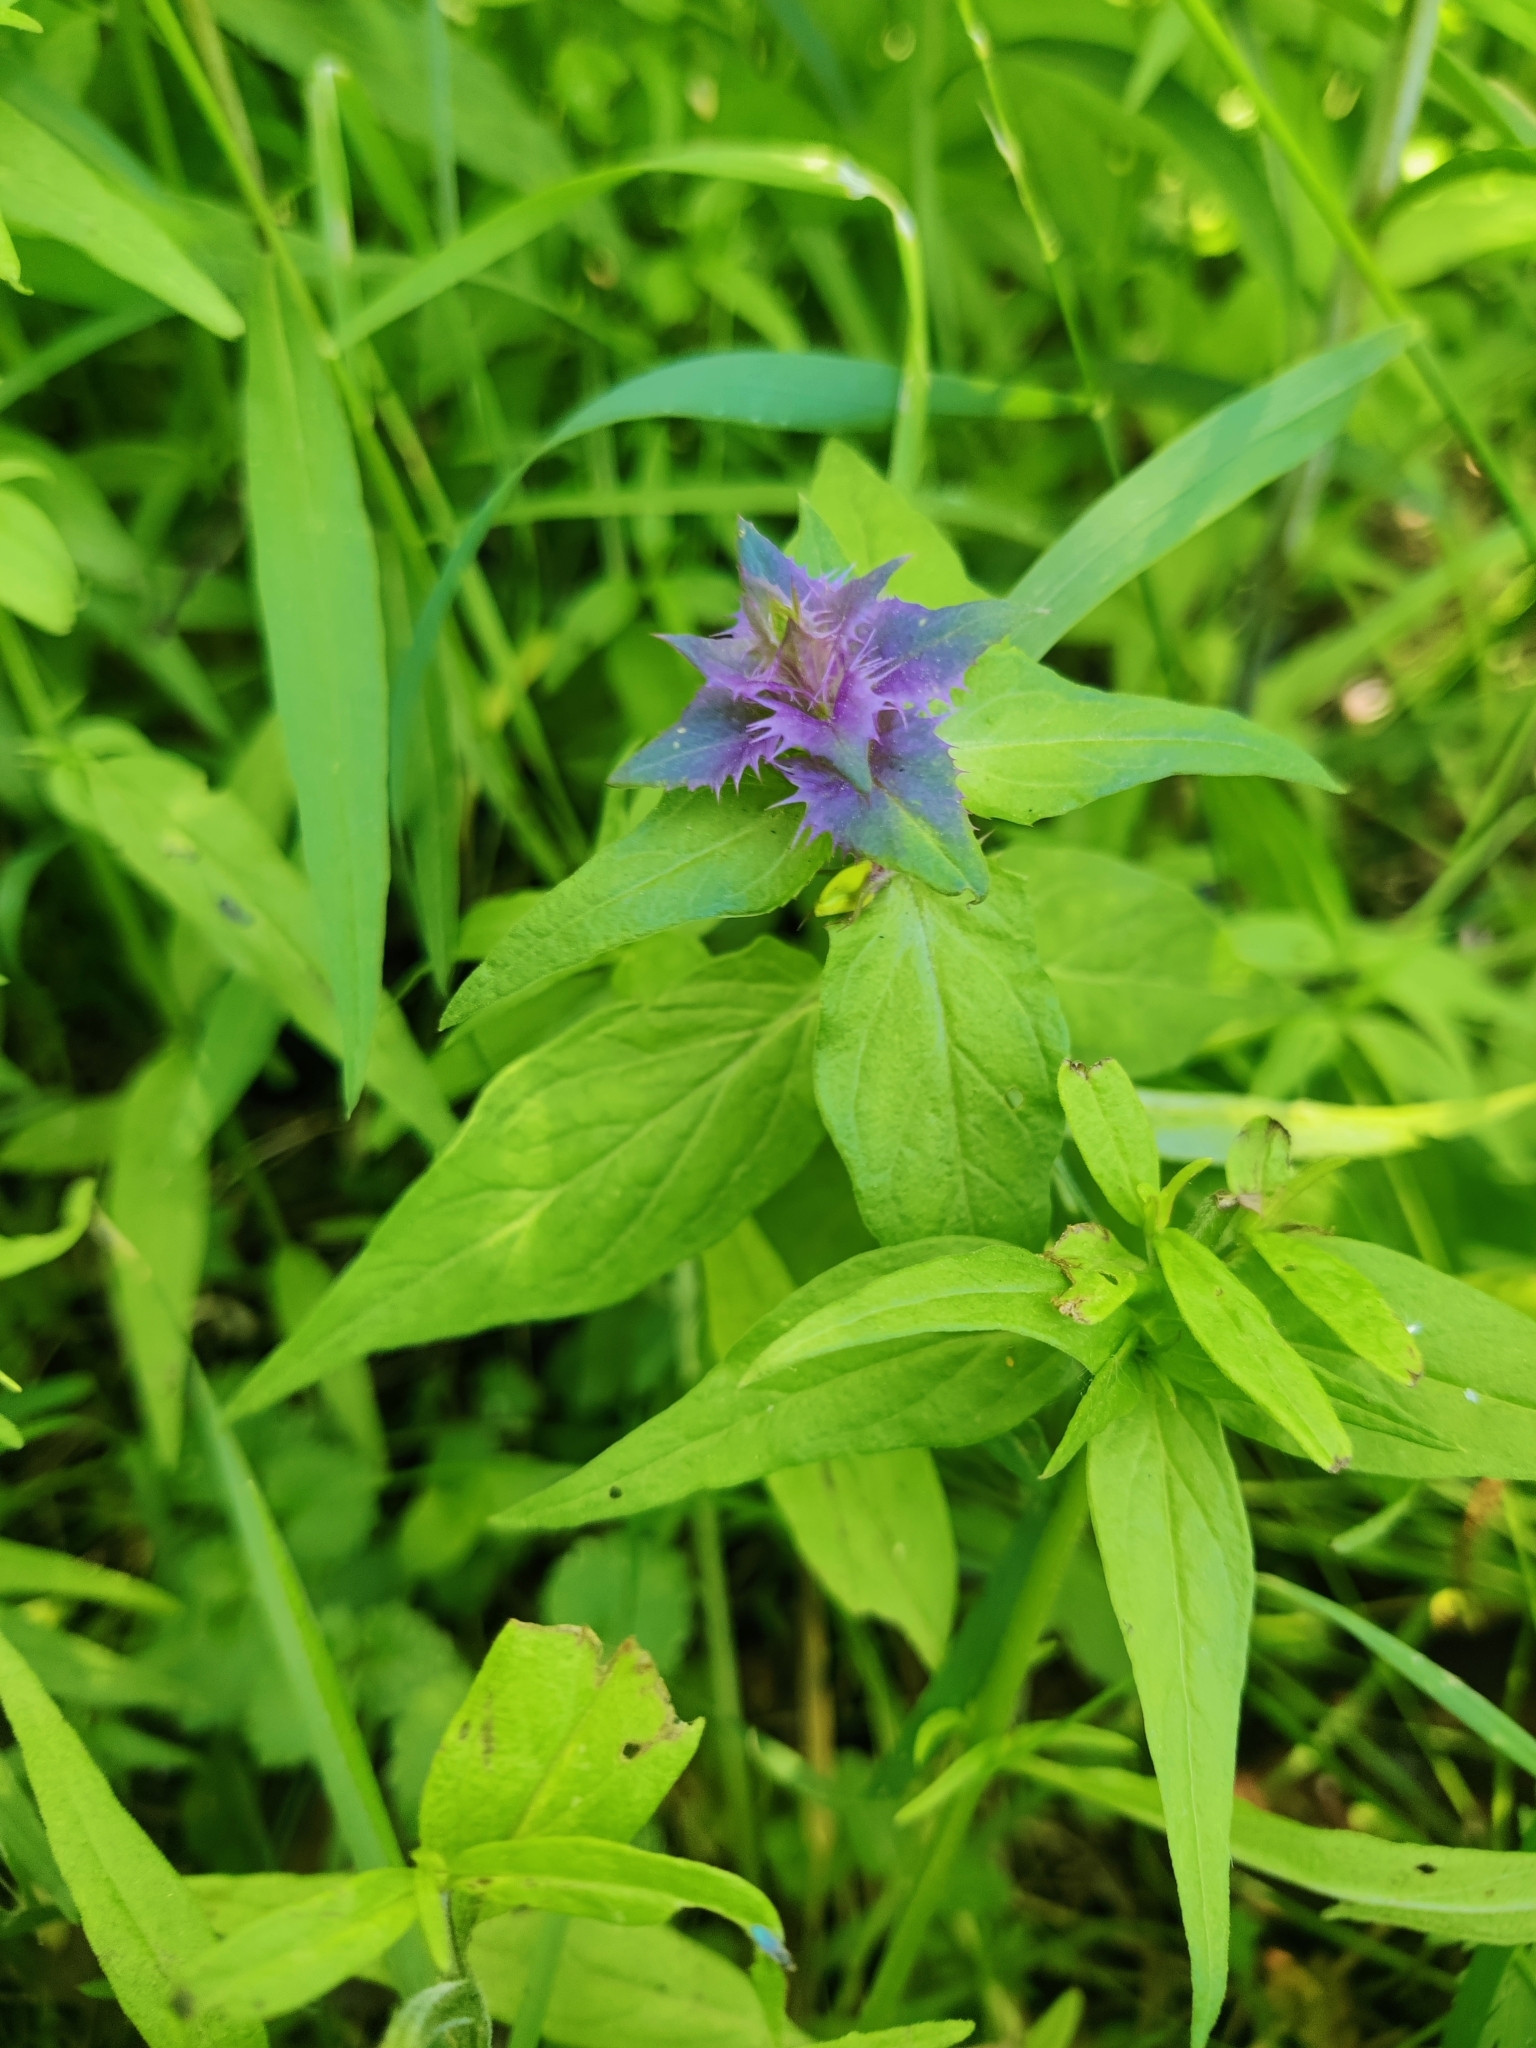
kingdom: Plantae
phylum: Tracheophyta
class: Magnoliopsida
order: Lamiales
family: Orobanchaceae
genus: Melampyrum
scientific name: Melampyrum nemorosum
